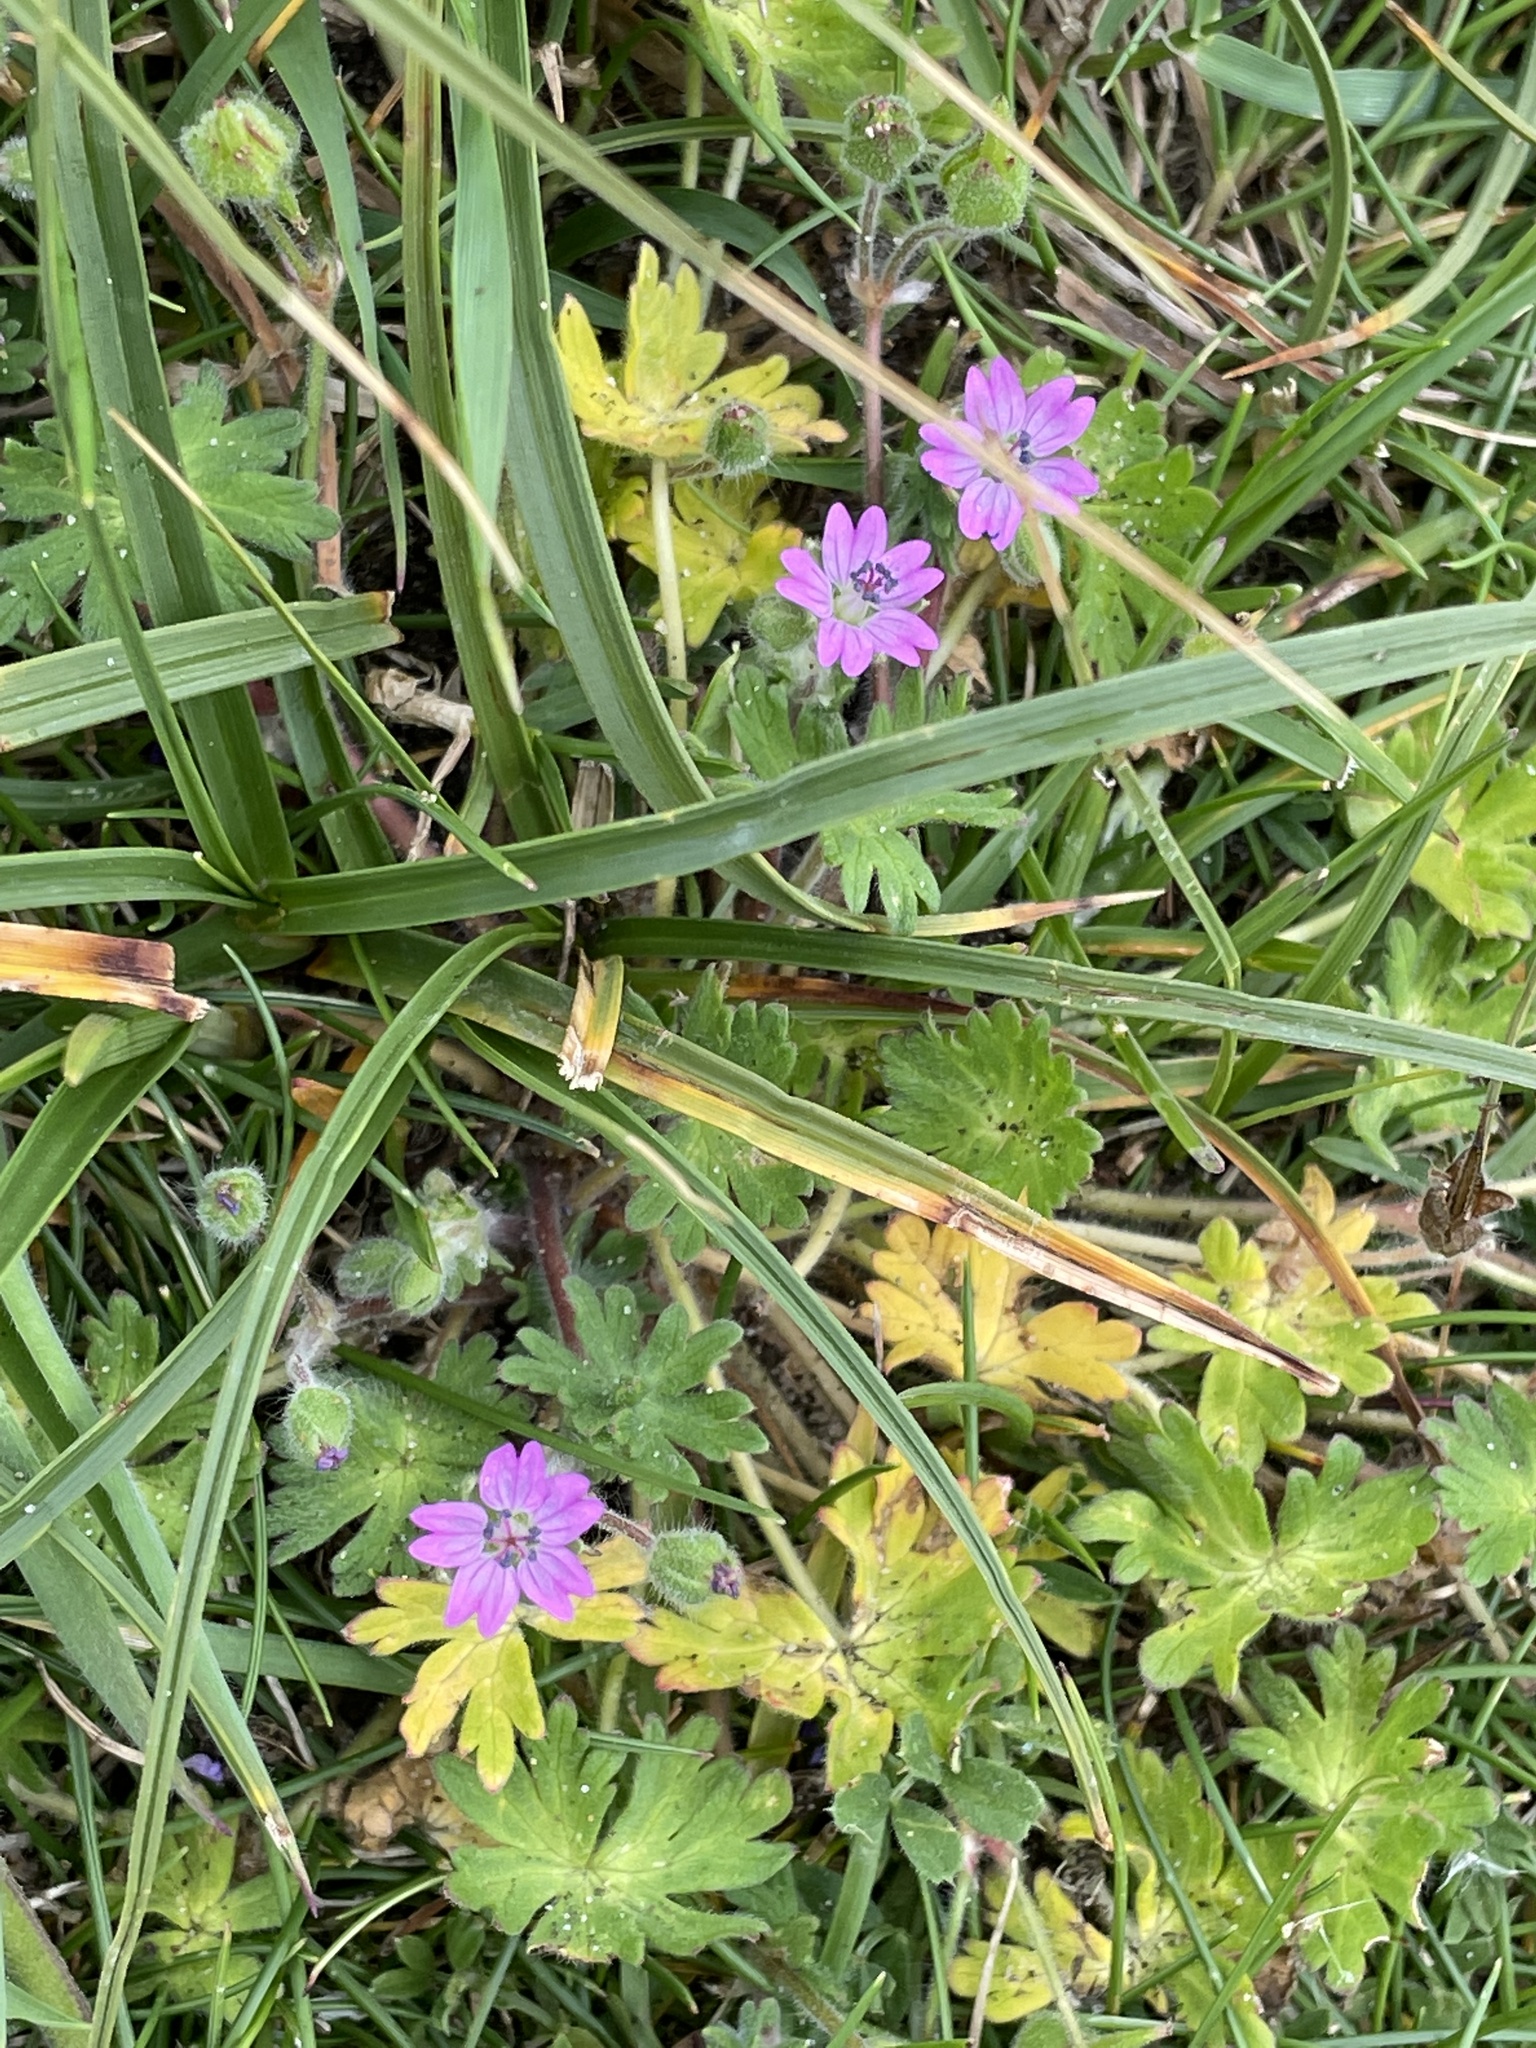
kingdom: Plantae
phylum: Tracheophyta
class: Magnoliopsida
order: Geraniales
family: Geraniaceae
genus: Geranium
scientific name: Geranium molle
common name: Dove's-foot crane's-bill
